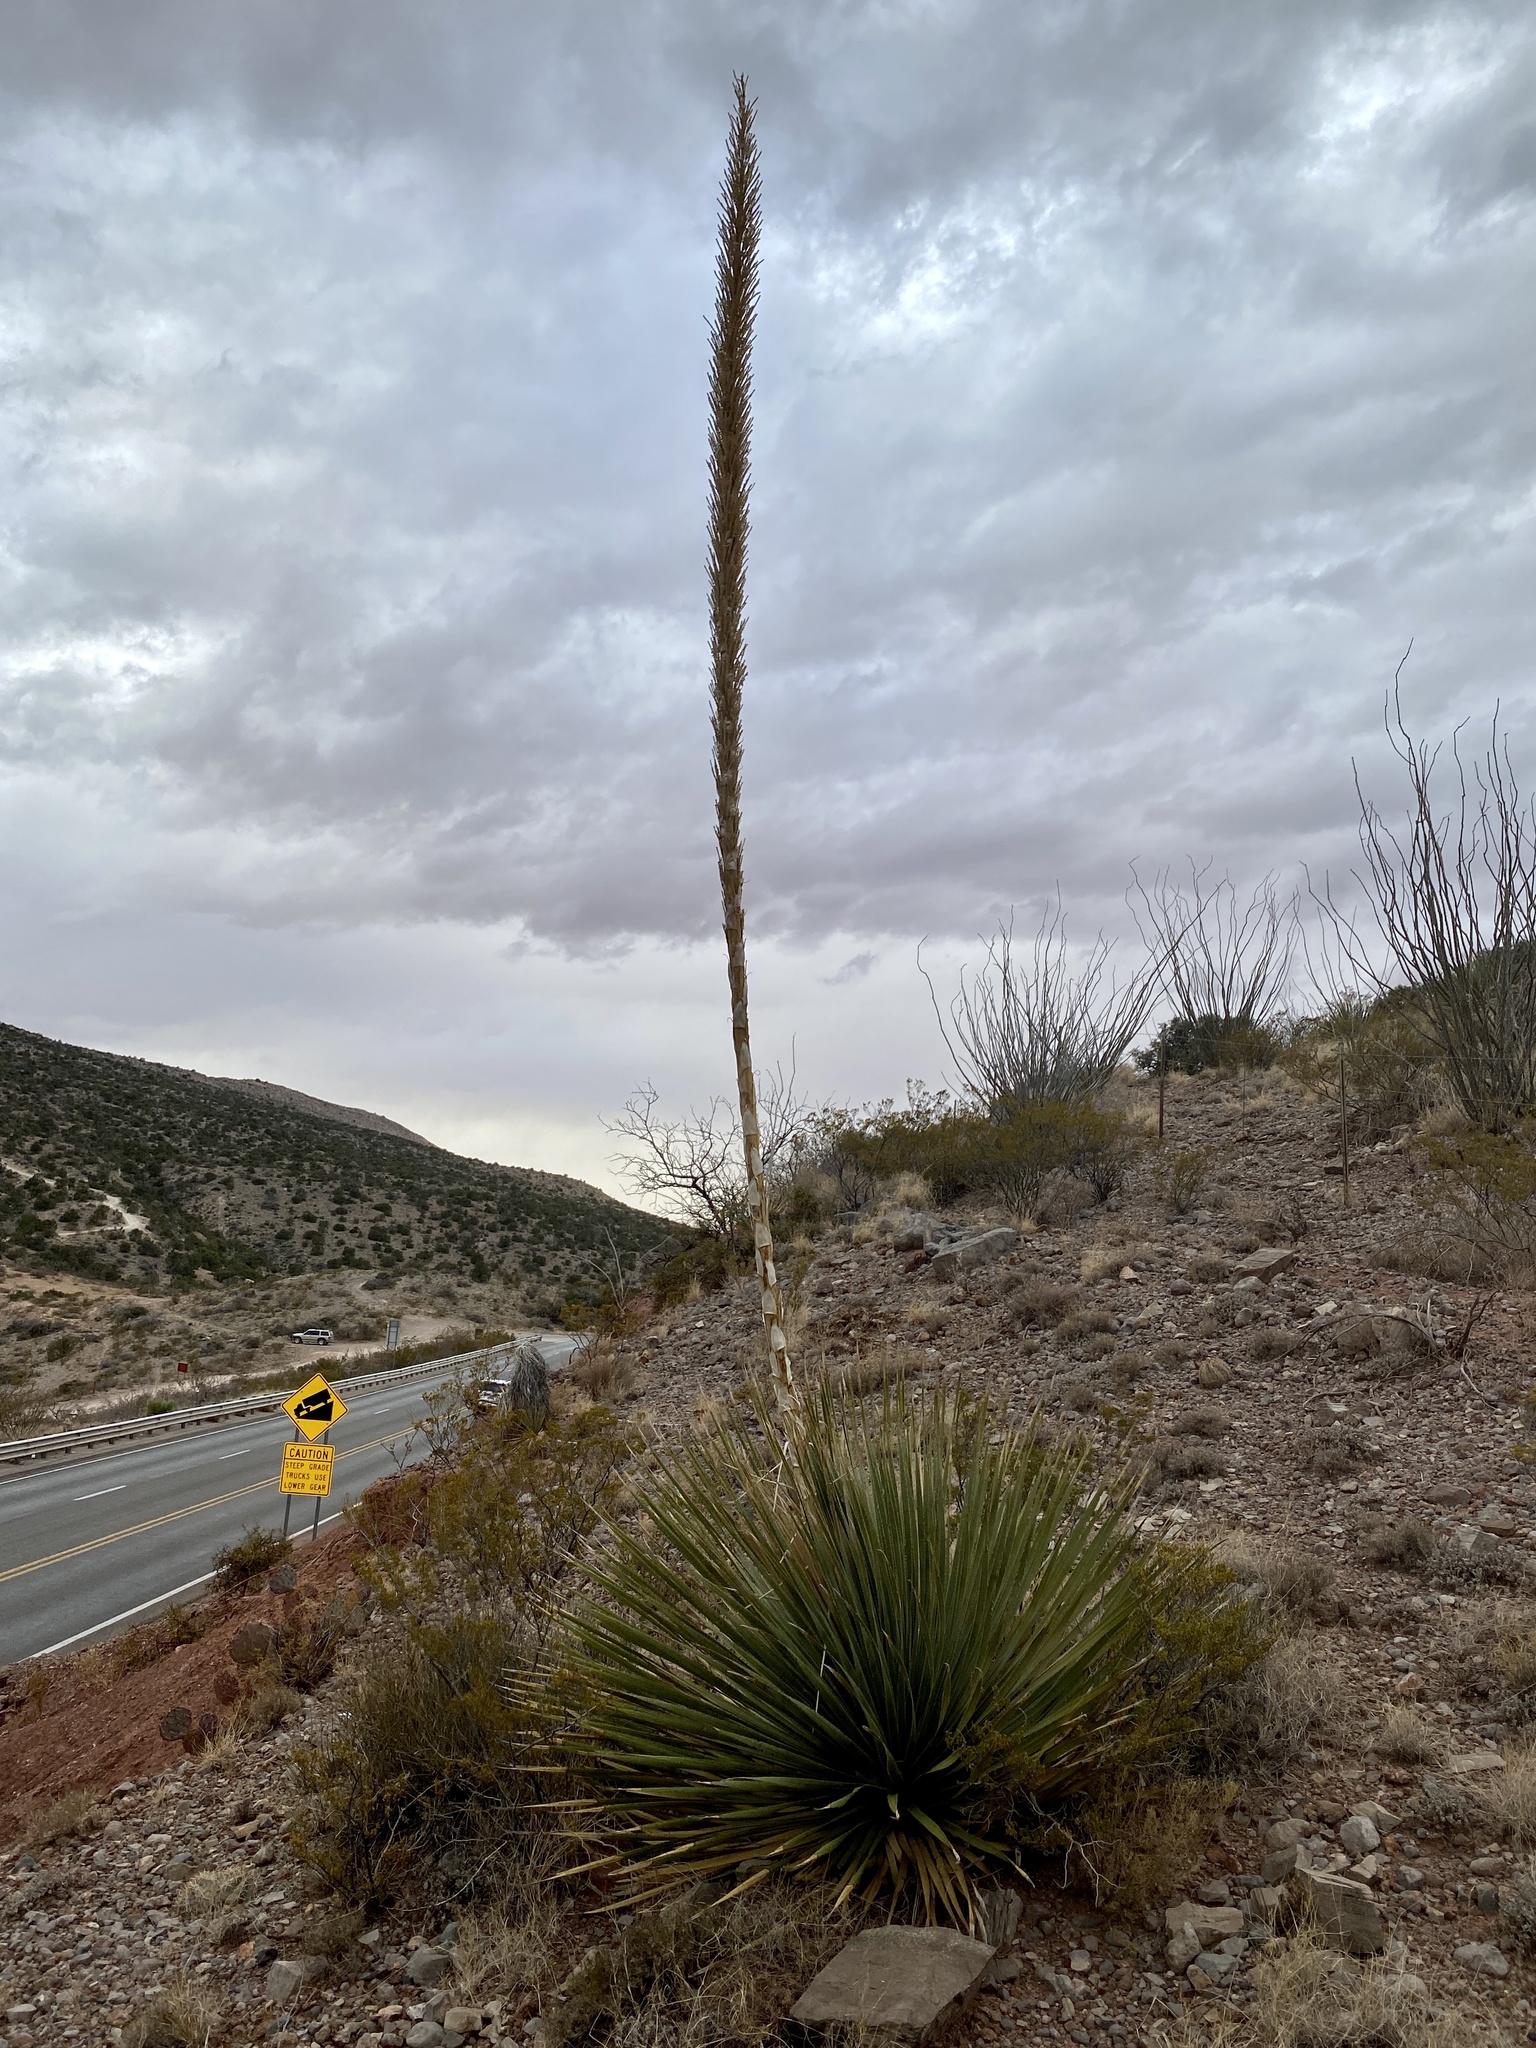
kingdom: Plantae
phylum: Tracheophyta
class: Liliopsida
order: Asparagales
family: Asparagaceae
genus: Dasylirion
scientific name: Dasylirion wheeleri
